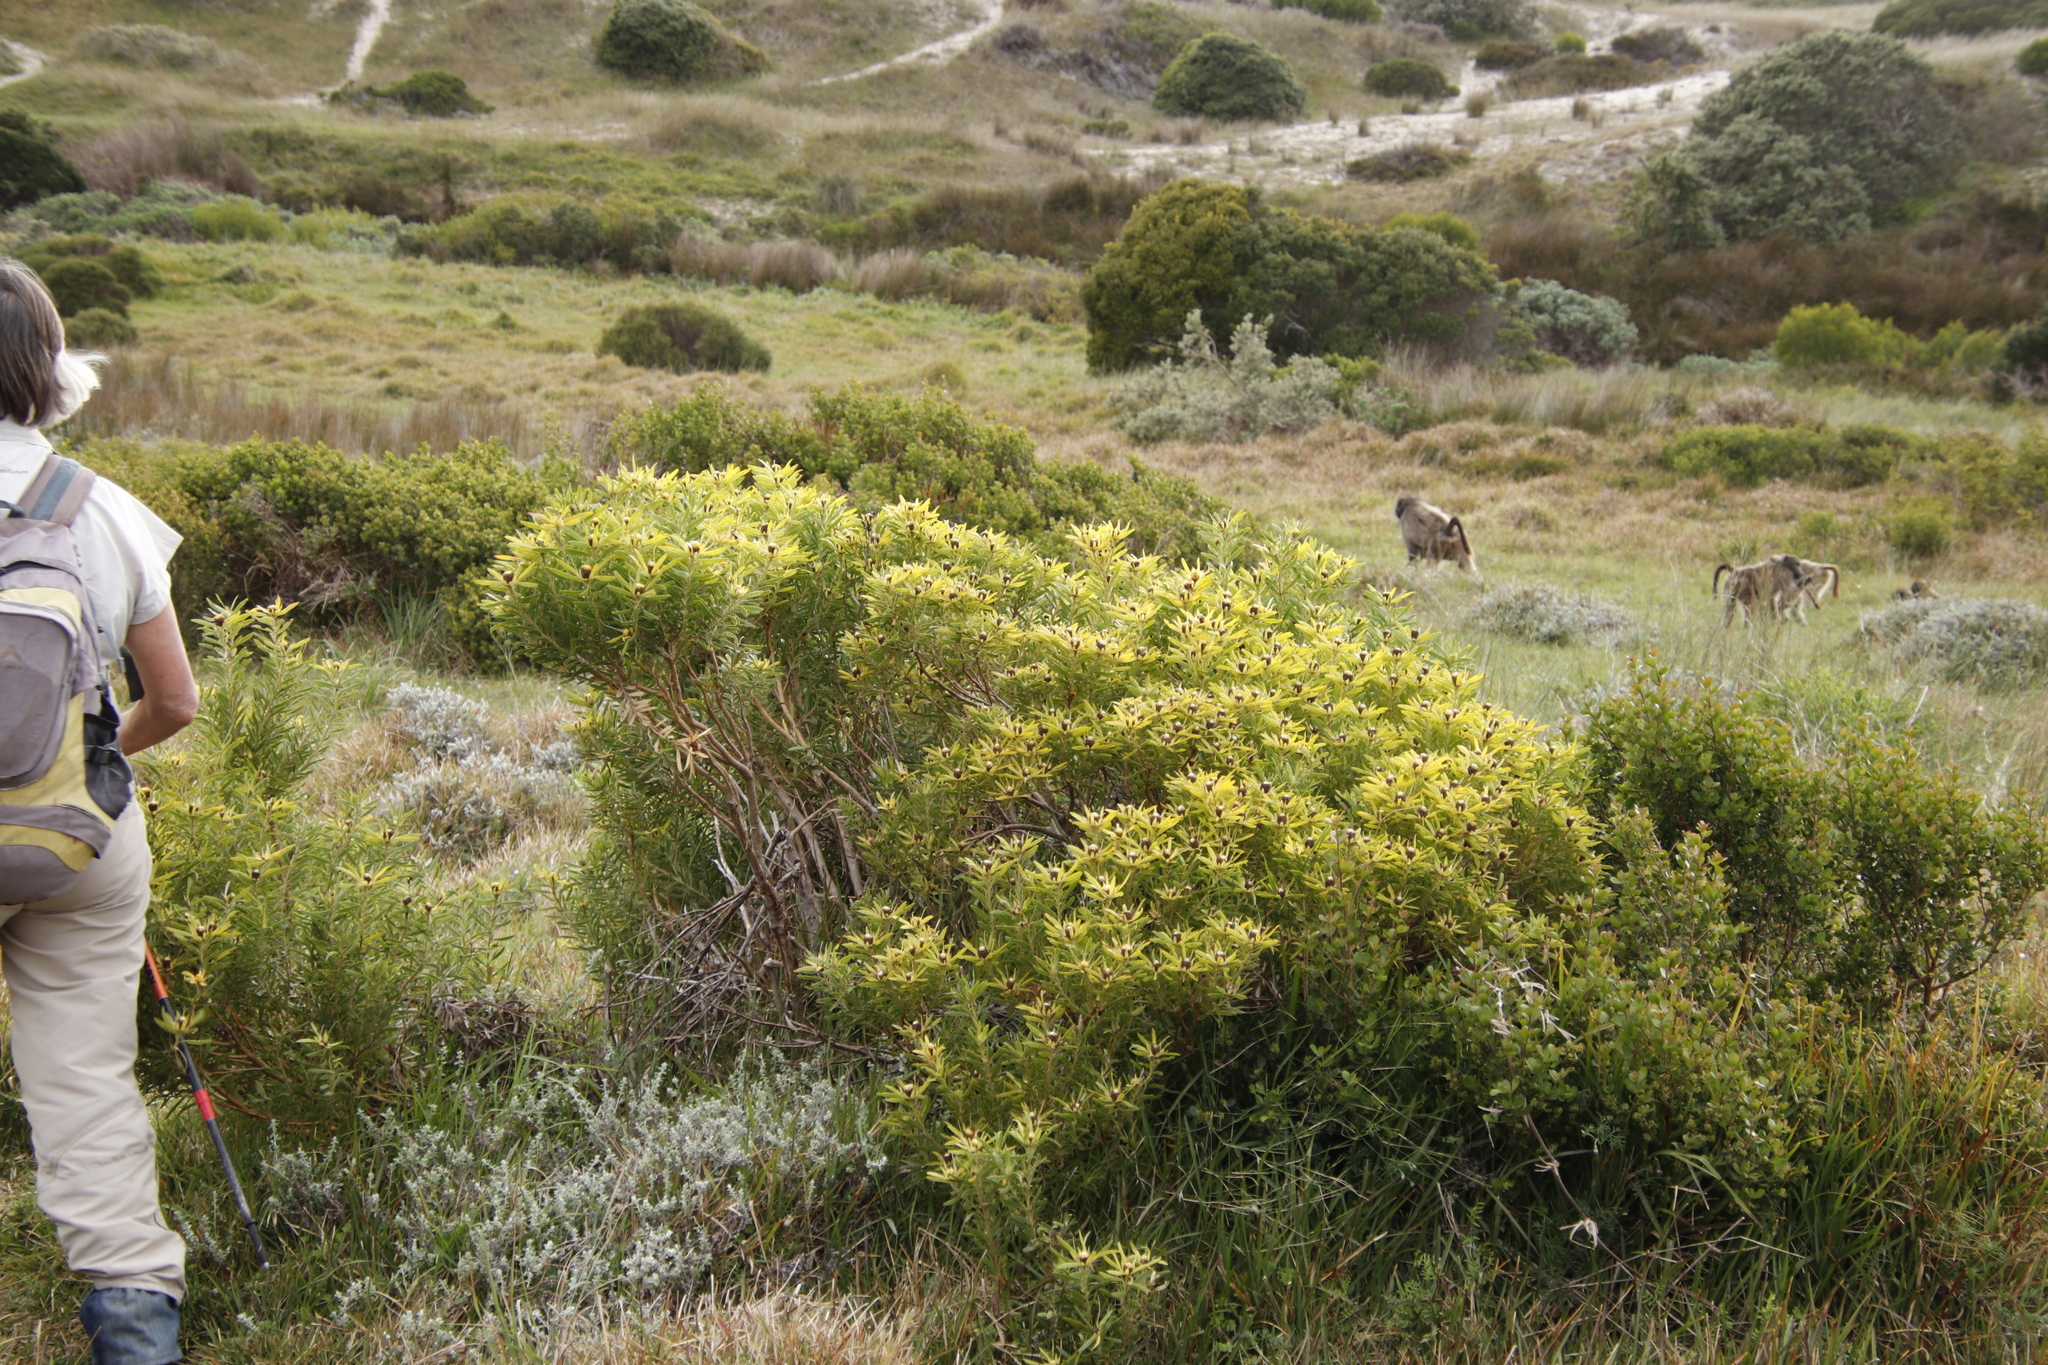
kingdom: Plantae
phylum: Tracheophyta
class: Magnoliopsida
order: Proteales
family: Proteaceae
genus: Leucadendron
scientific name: Leucadendron coniferum
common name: Dune conebush
